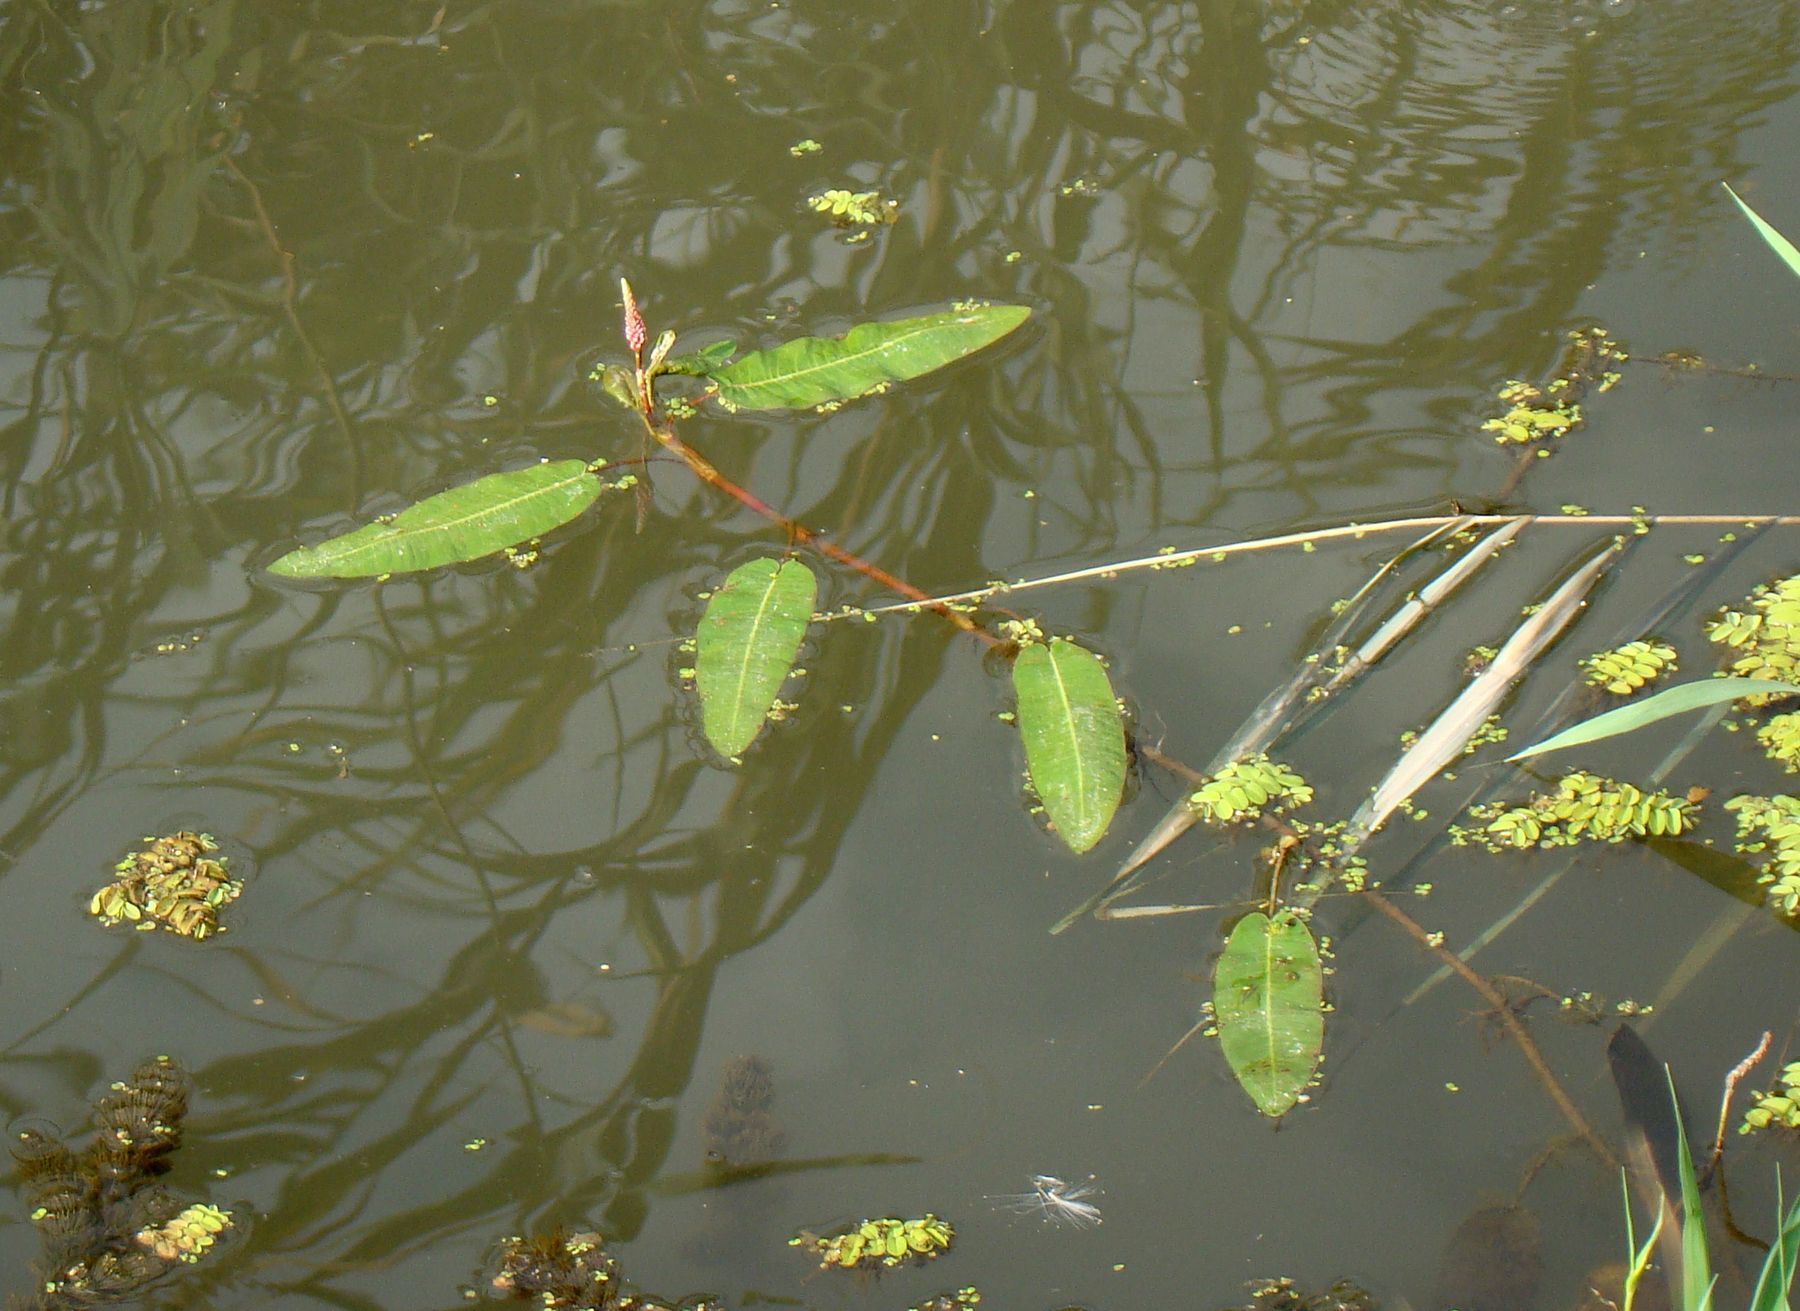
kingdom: Plantae
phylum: Tracheophyta
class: Magnoliopsida
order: Caryophyllales
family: Polygonaceae
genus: Persicaria
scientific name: Persicaria amphibia
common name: Amphibious bistort
